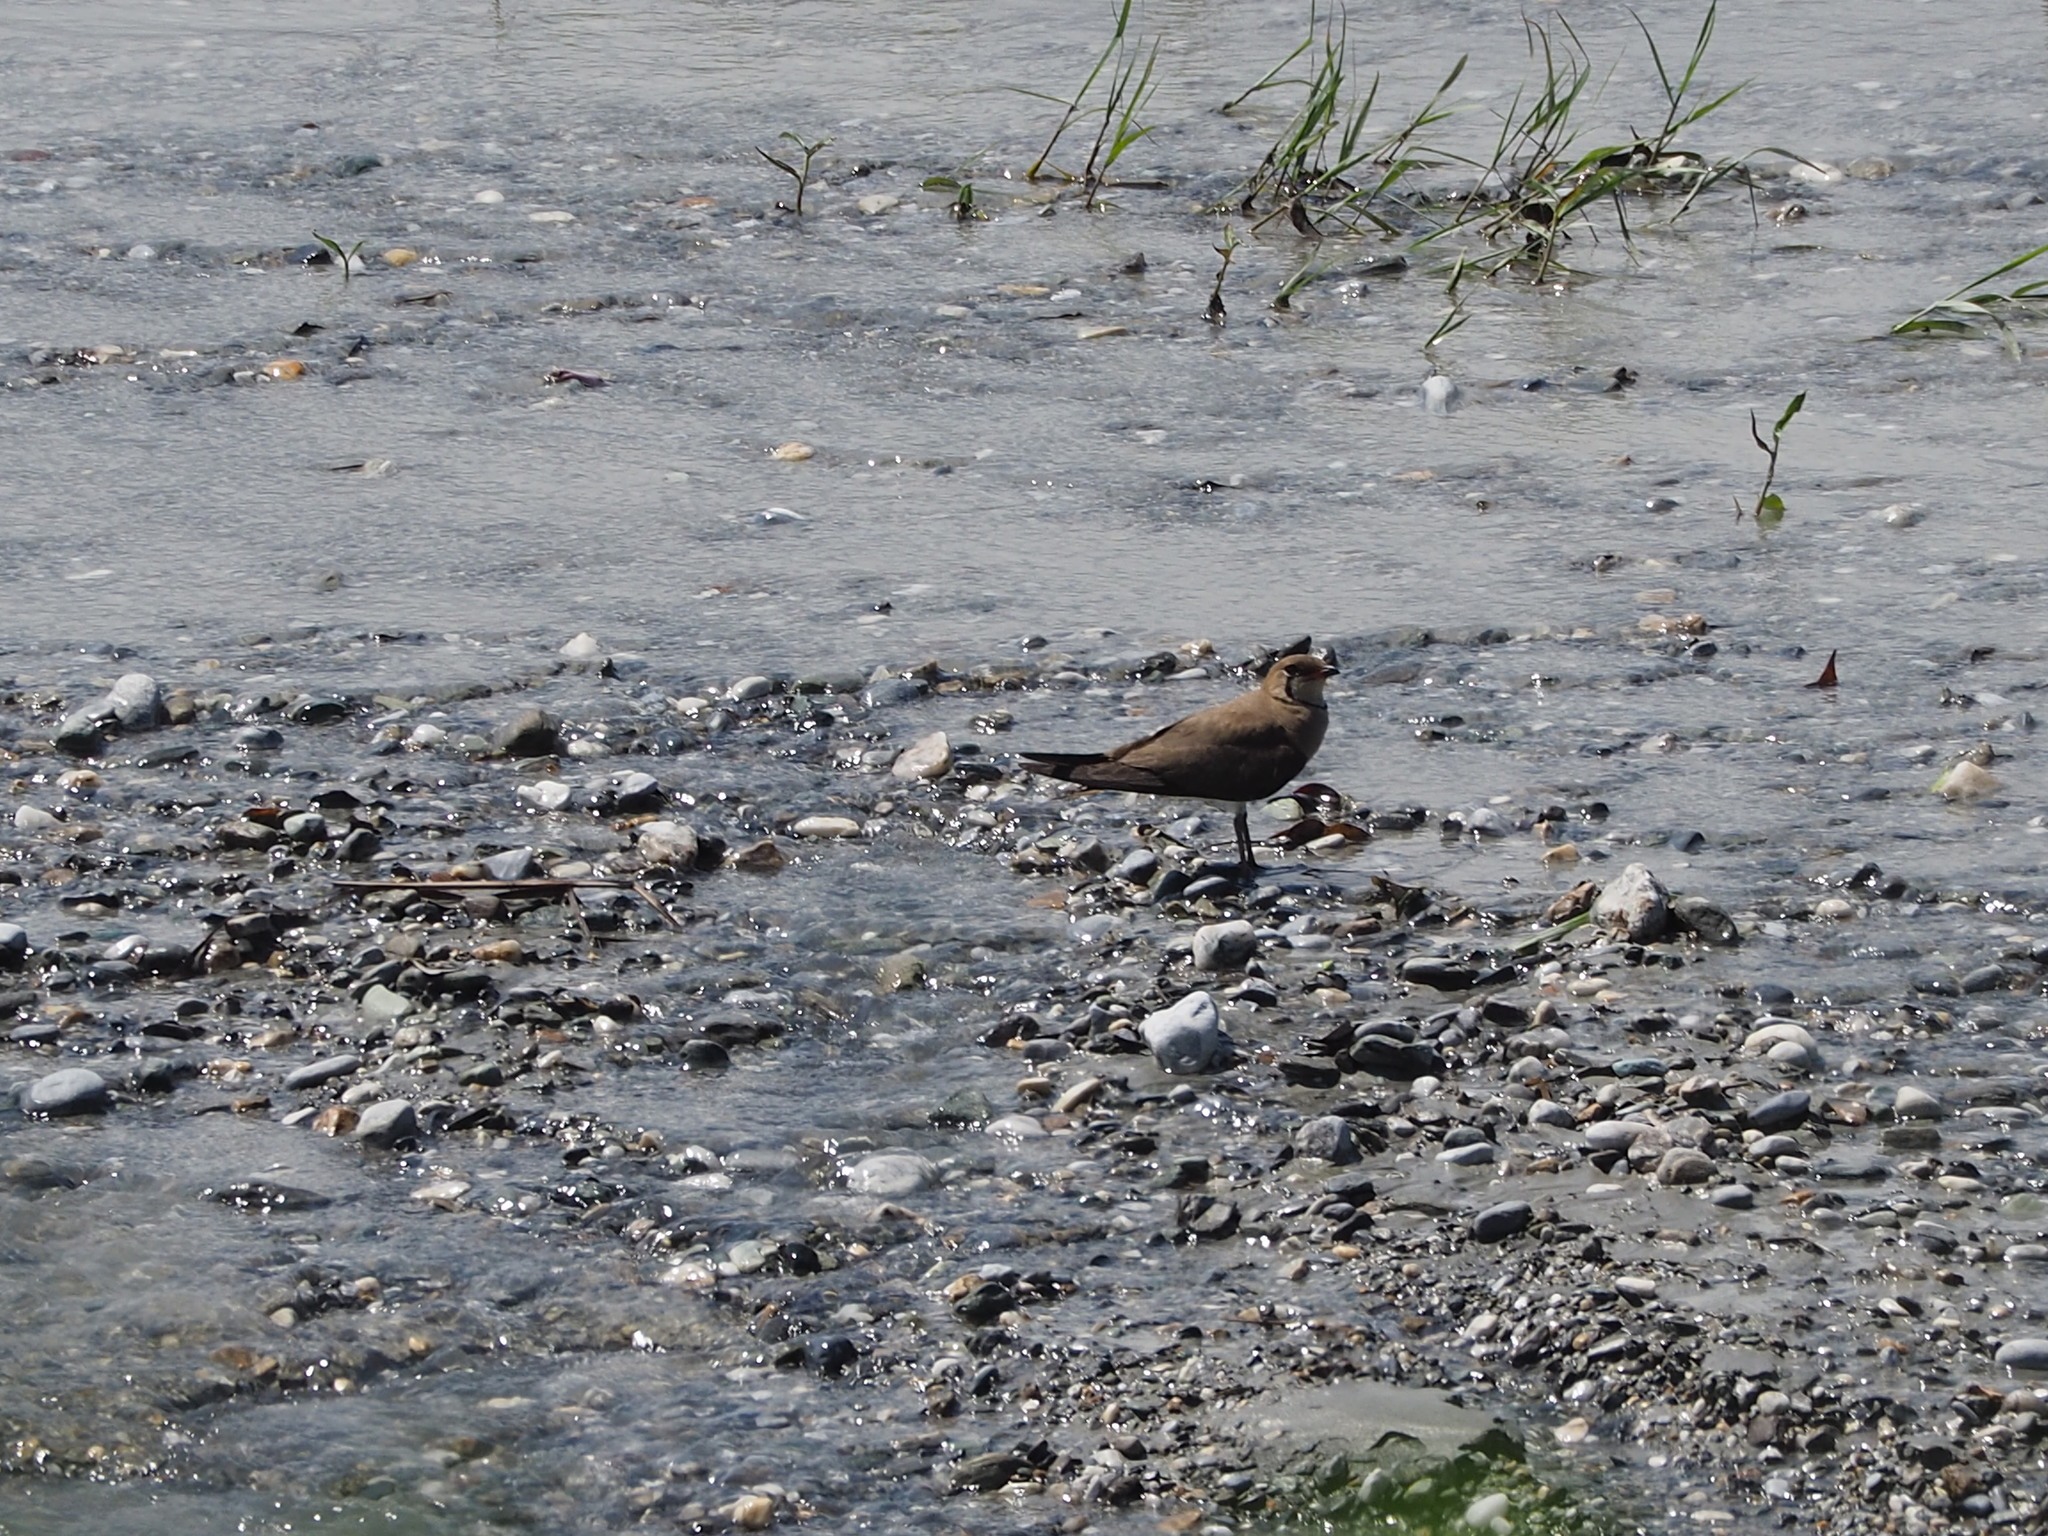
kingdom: Animalia
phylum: Chordata
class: Aves
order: Charadriiformes
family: Glareolidae
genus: Glareola
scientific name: Glareola maldivarum
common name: Oriental pratincole
